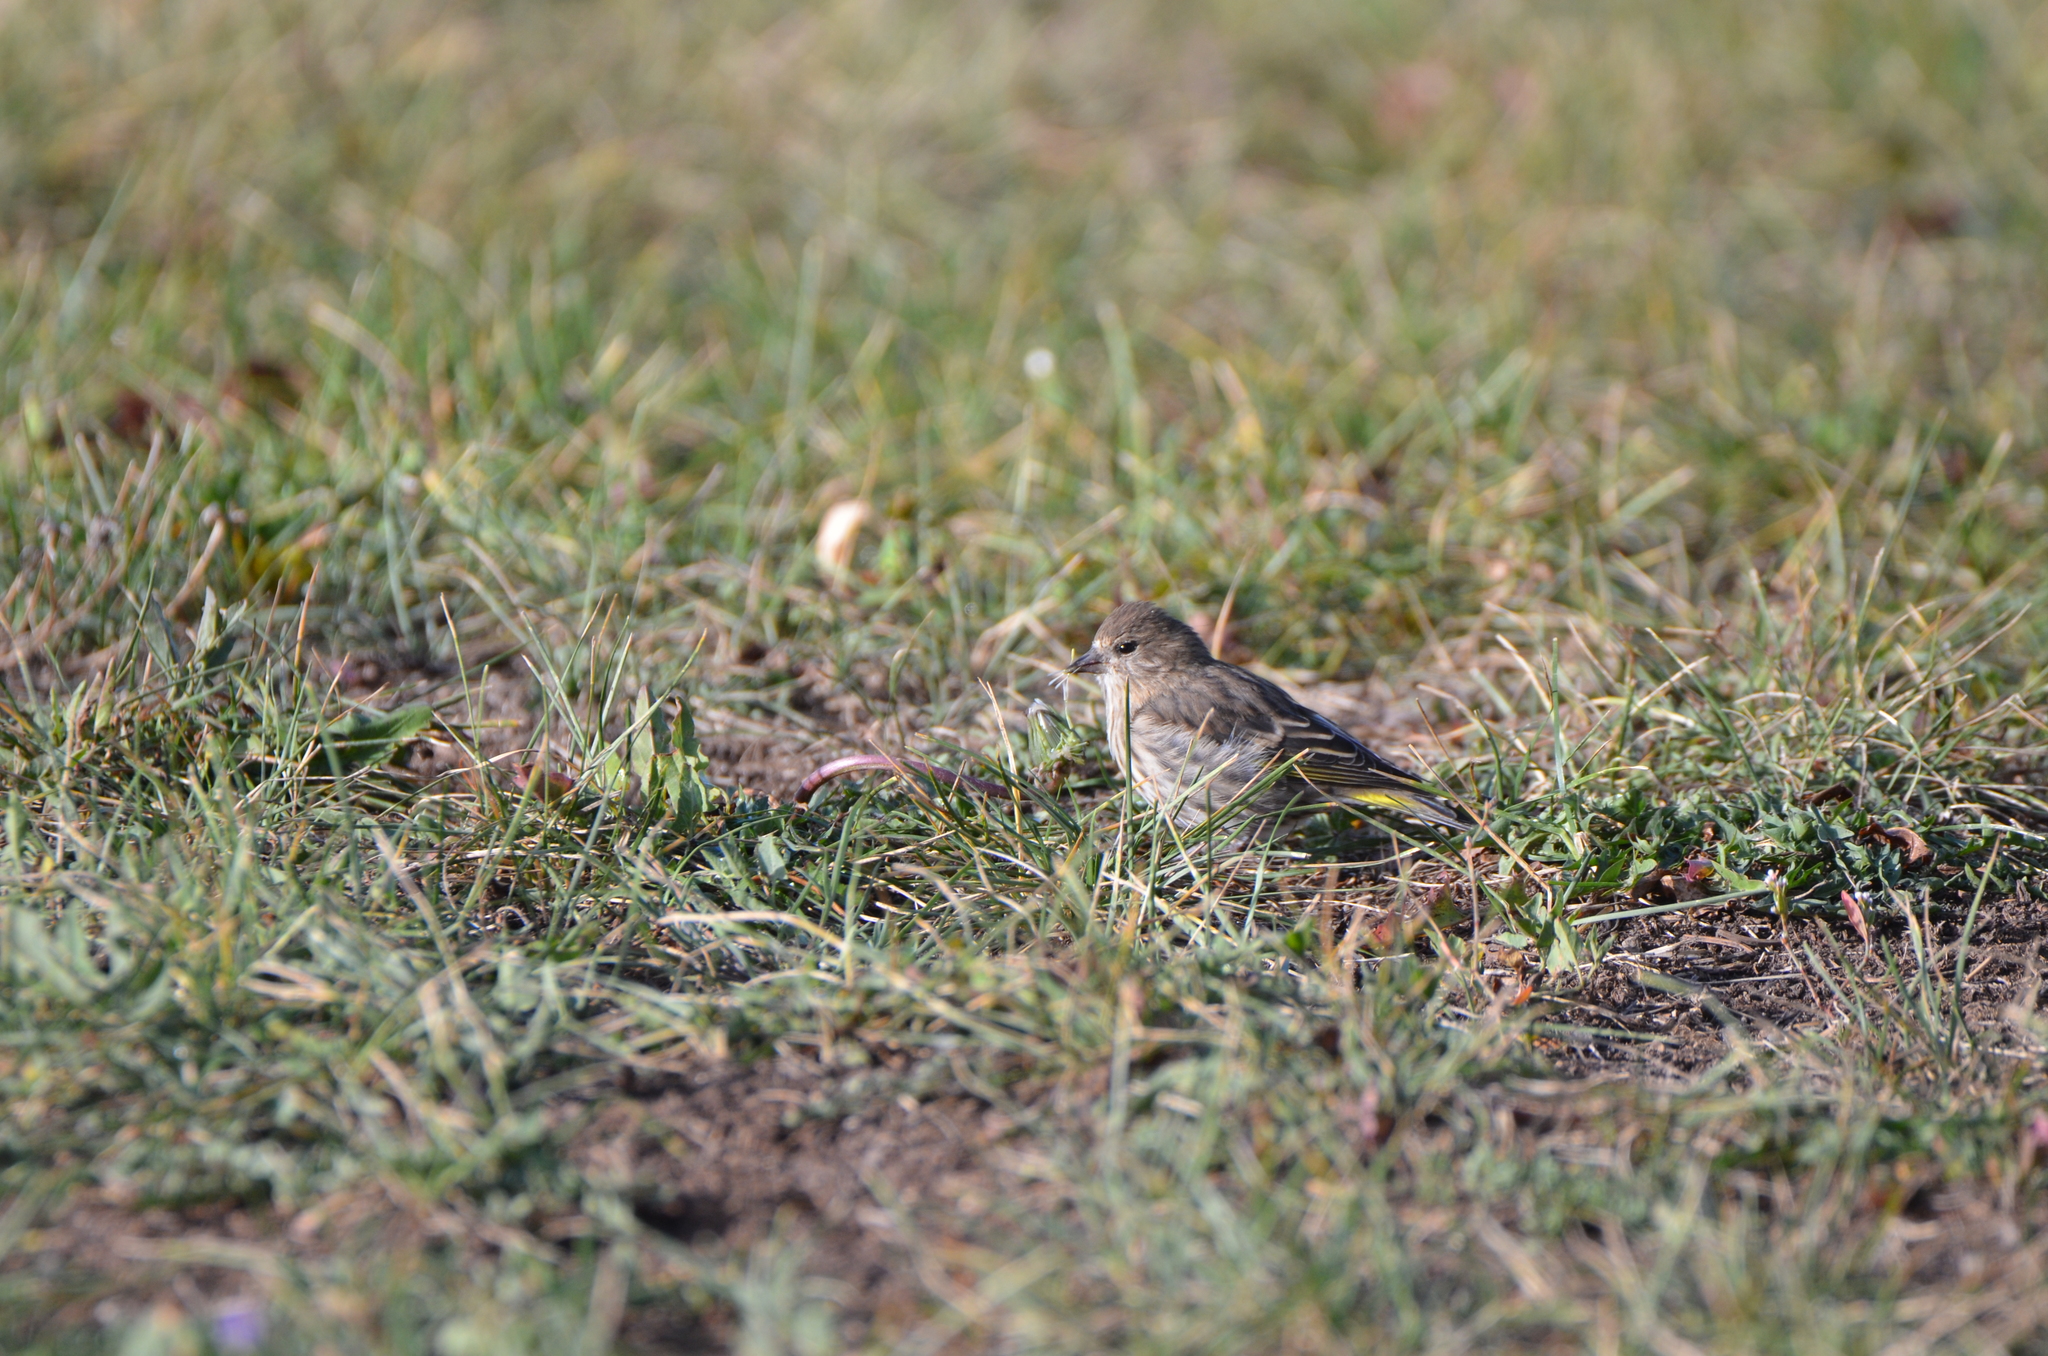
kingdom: Animalia
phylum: Chordata
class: Aves
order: Passeriformes
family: Fringillidae
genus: Spinus
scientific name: Spinus pinus
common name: Pine siskin
